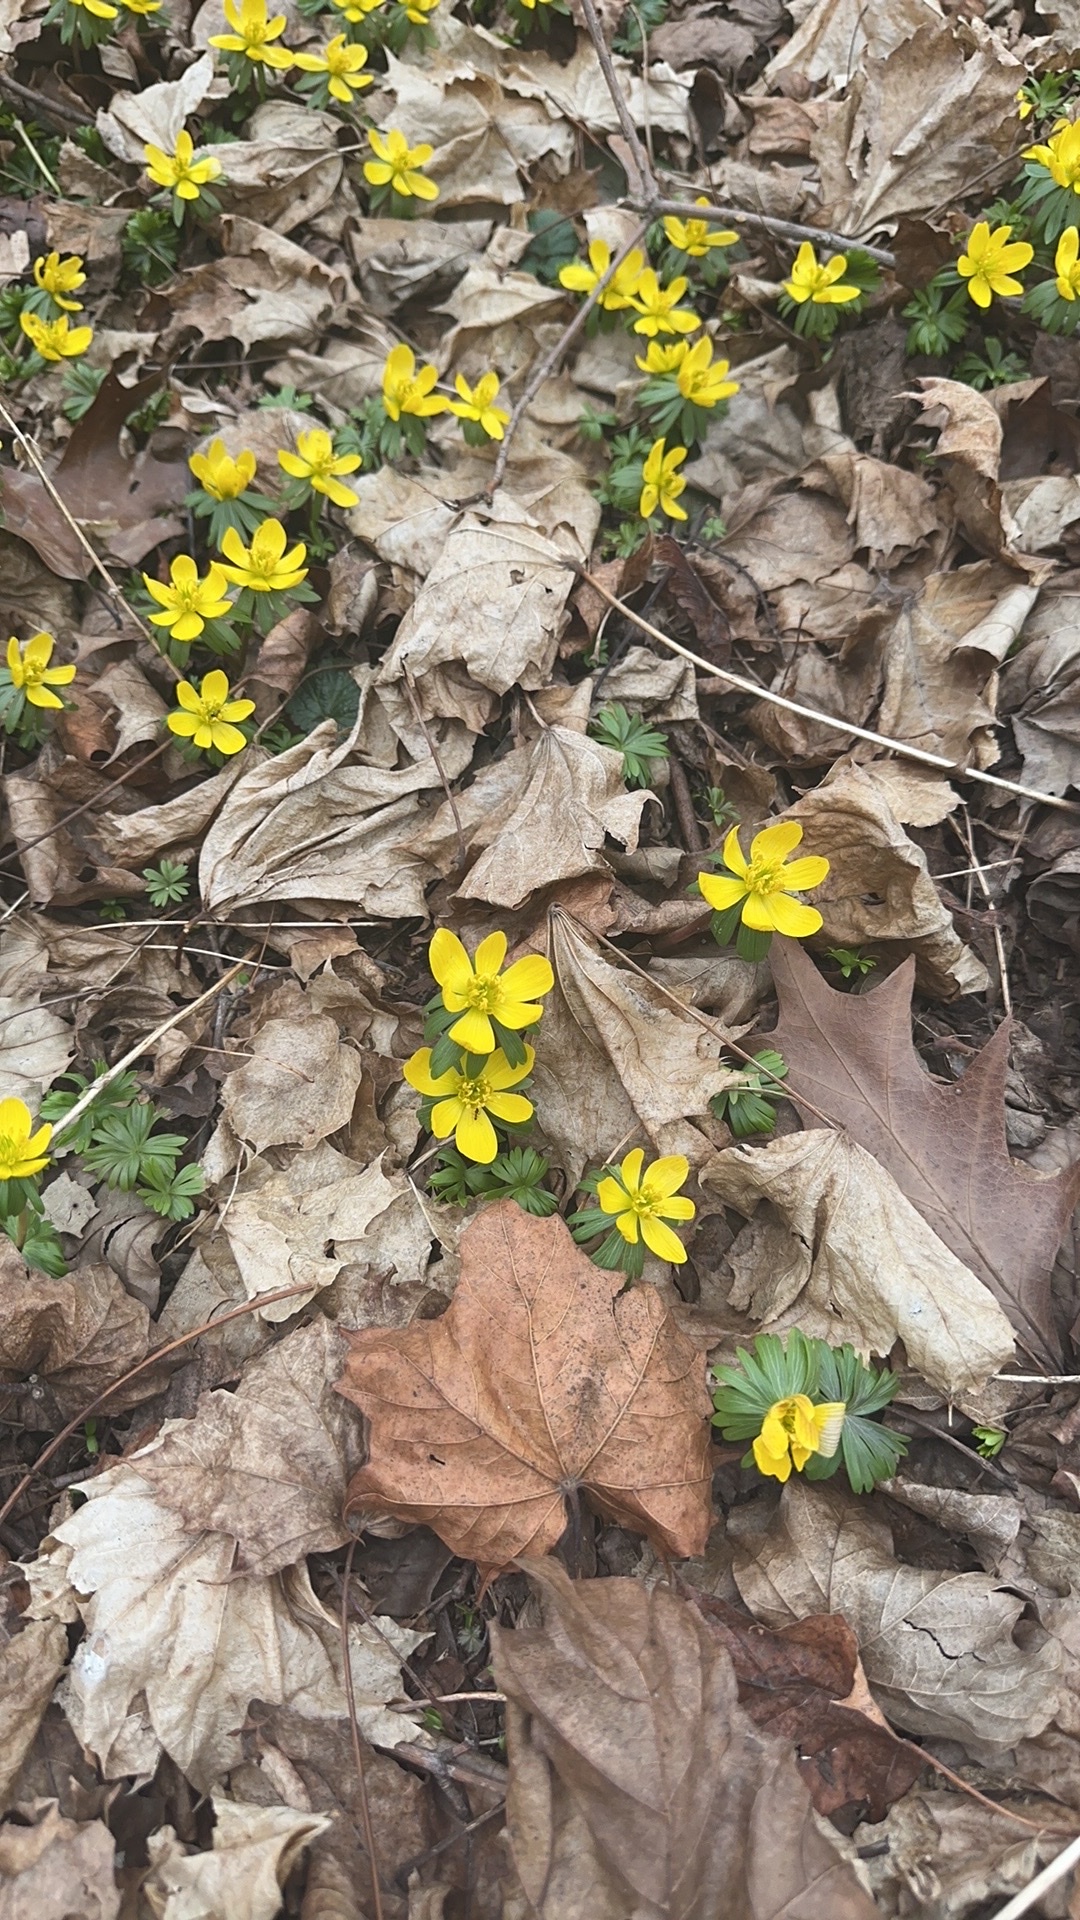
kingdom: Plantae
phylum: Tracheophyta
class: Magnoliopsida
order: Ranunculales
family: Ranunculaceae
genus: Eranthis
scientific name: Eranthis hyemalis
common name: Winter aconite
